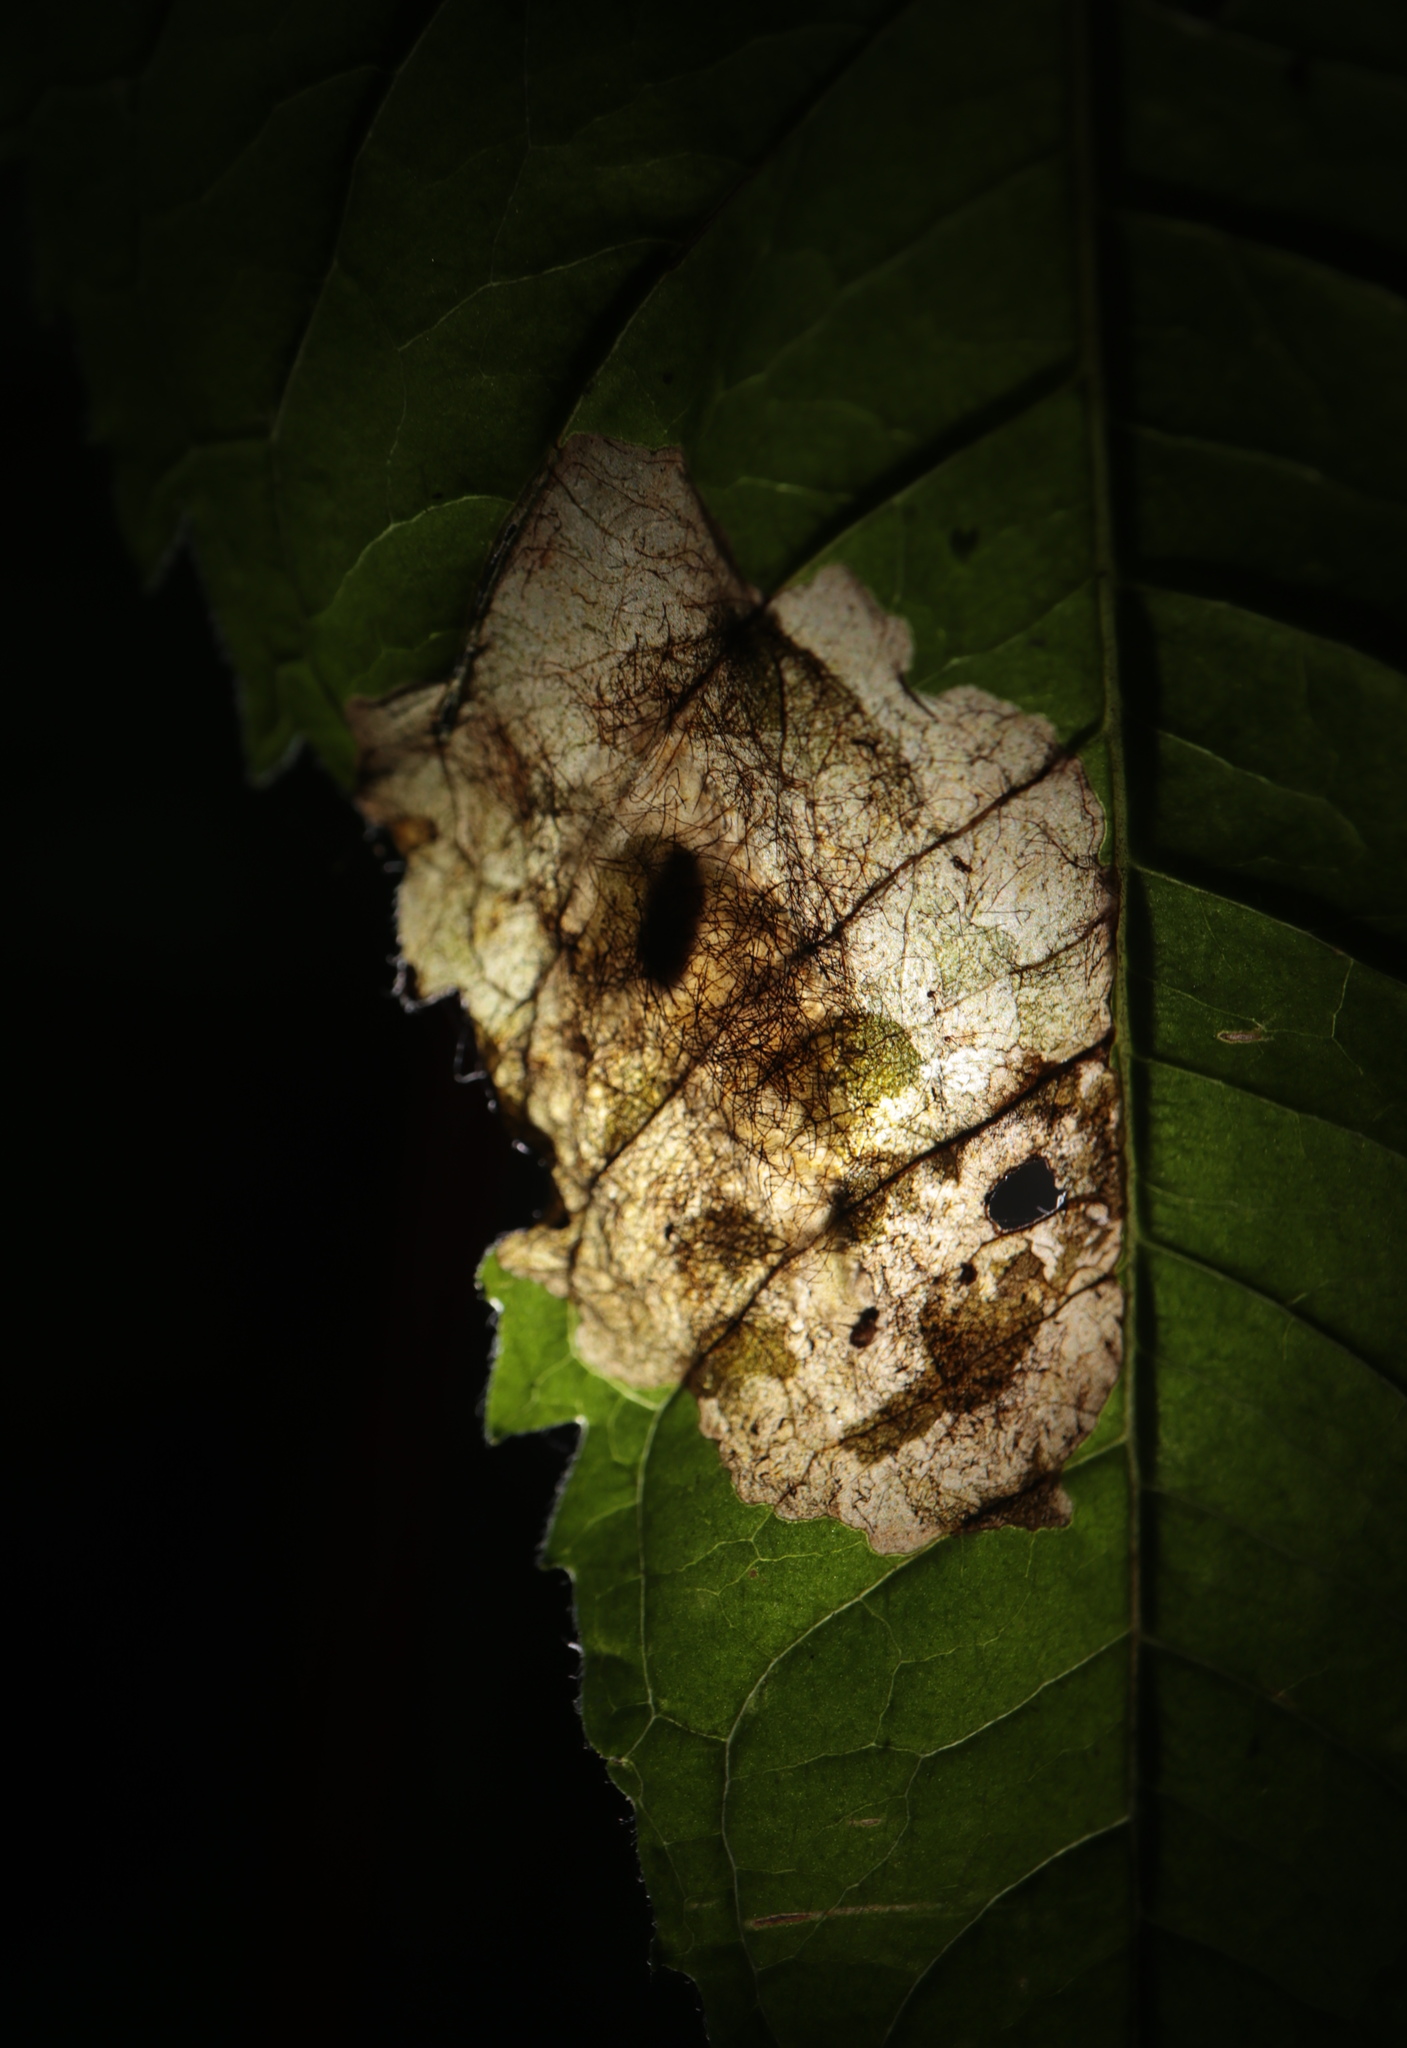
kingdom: Animalia
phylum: Arthropoda
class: Insecta
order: Coleoptera
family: Chrysomelidae
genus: Sumitrosis
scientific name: Sumitrosis inaequalis
